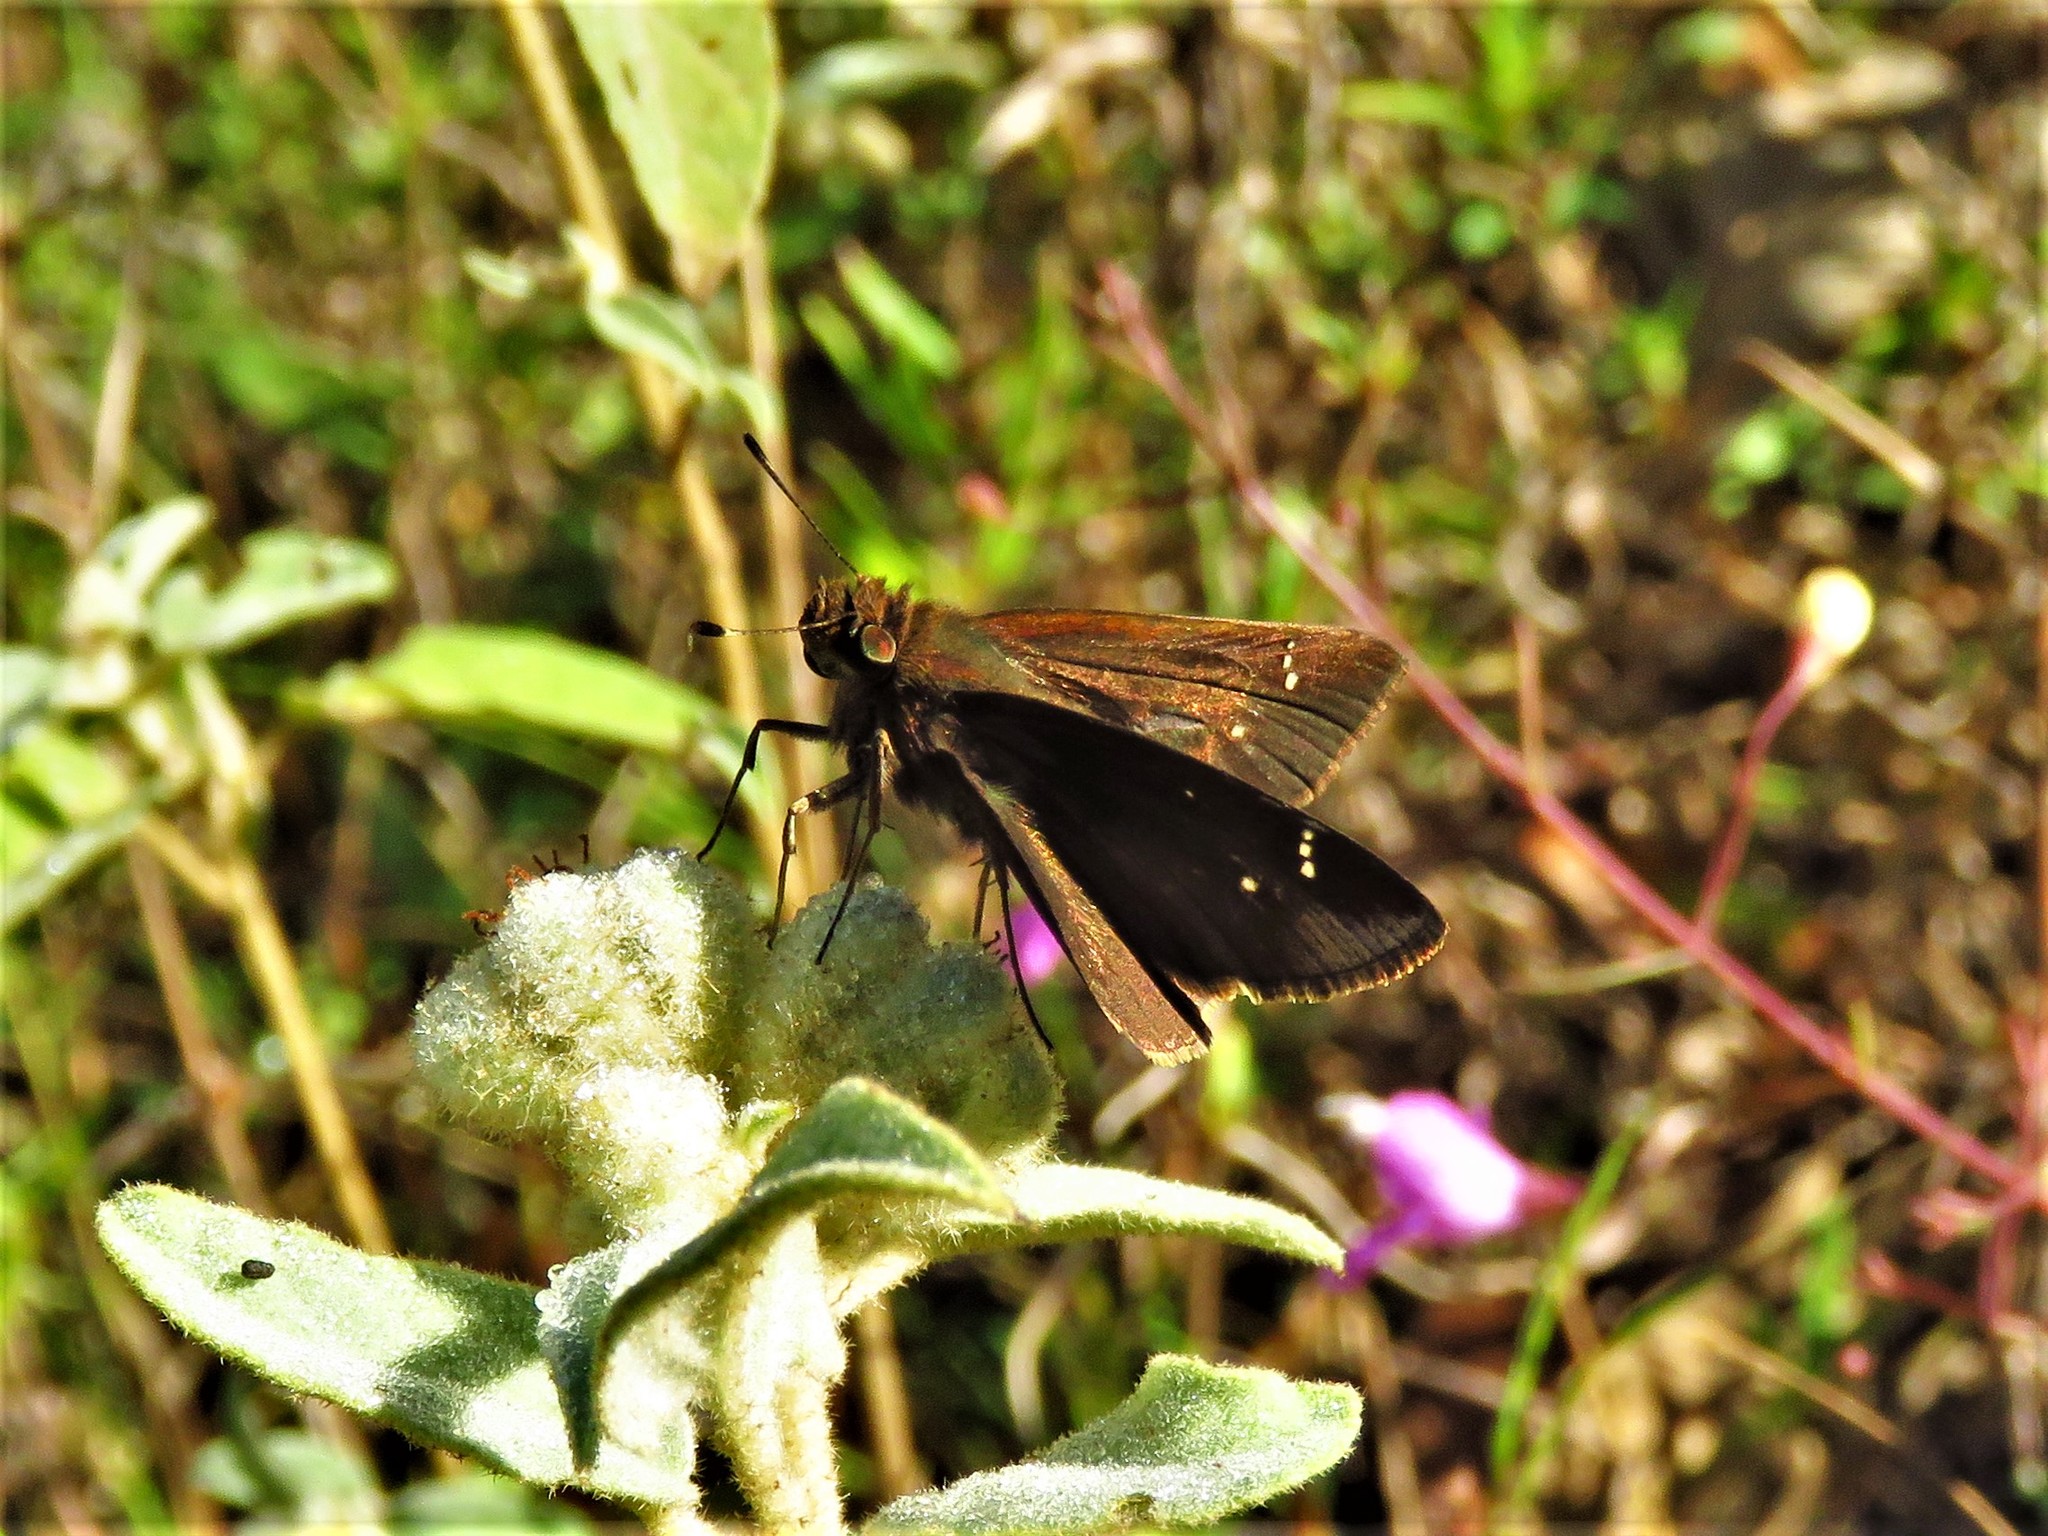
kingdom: Animalia
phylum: Arthropoda
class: Insecta
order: Lepidoptera
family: Hesperiidae
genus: Lerema
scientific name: Lerema accius
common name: Clouded skipper
